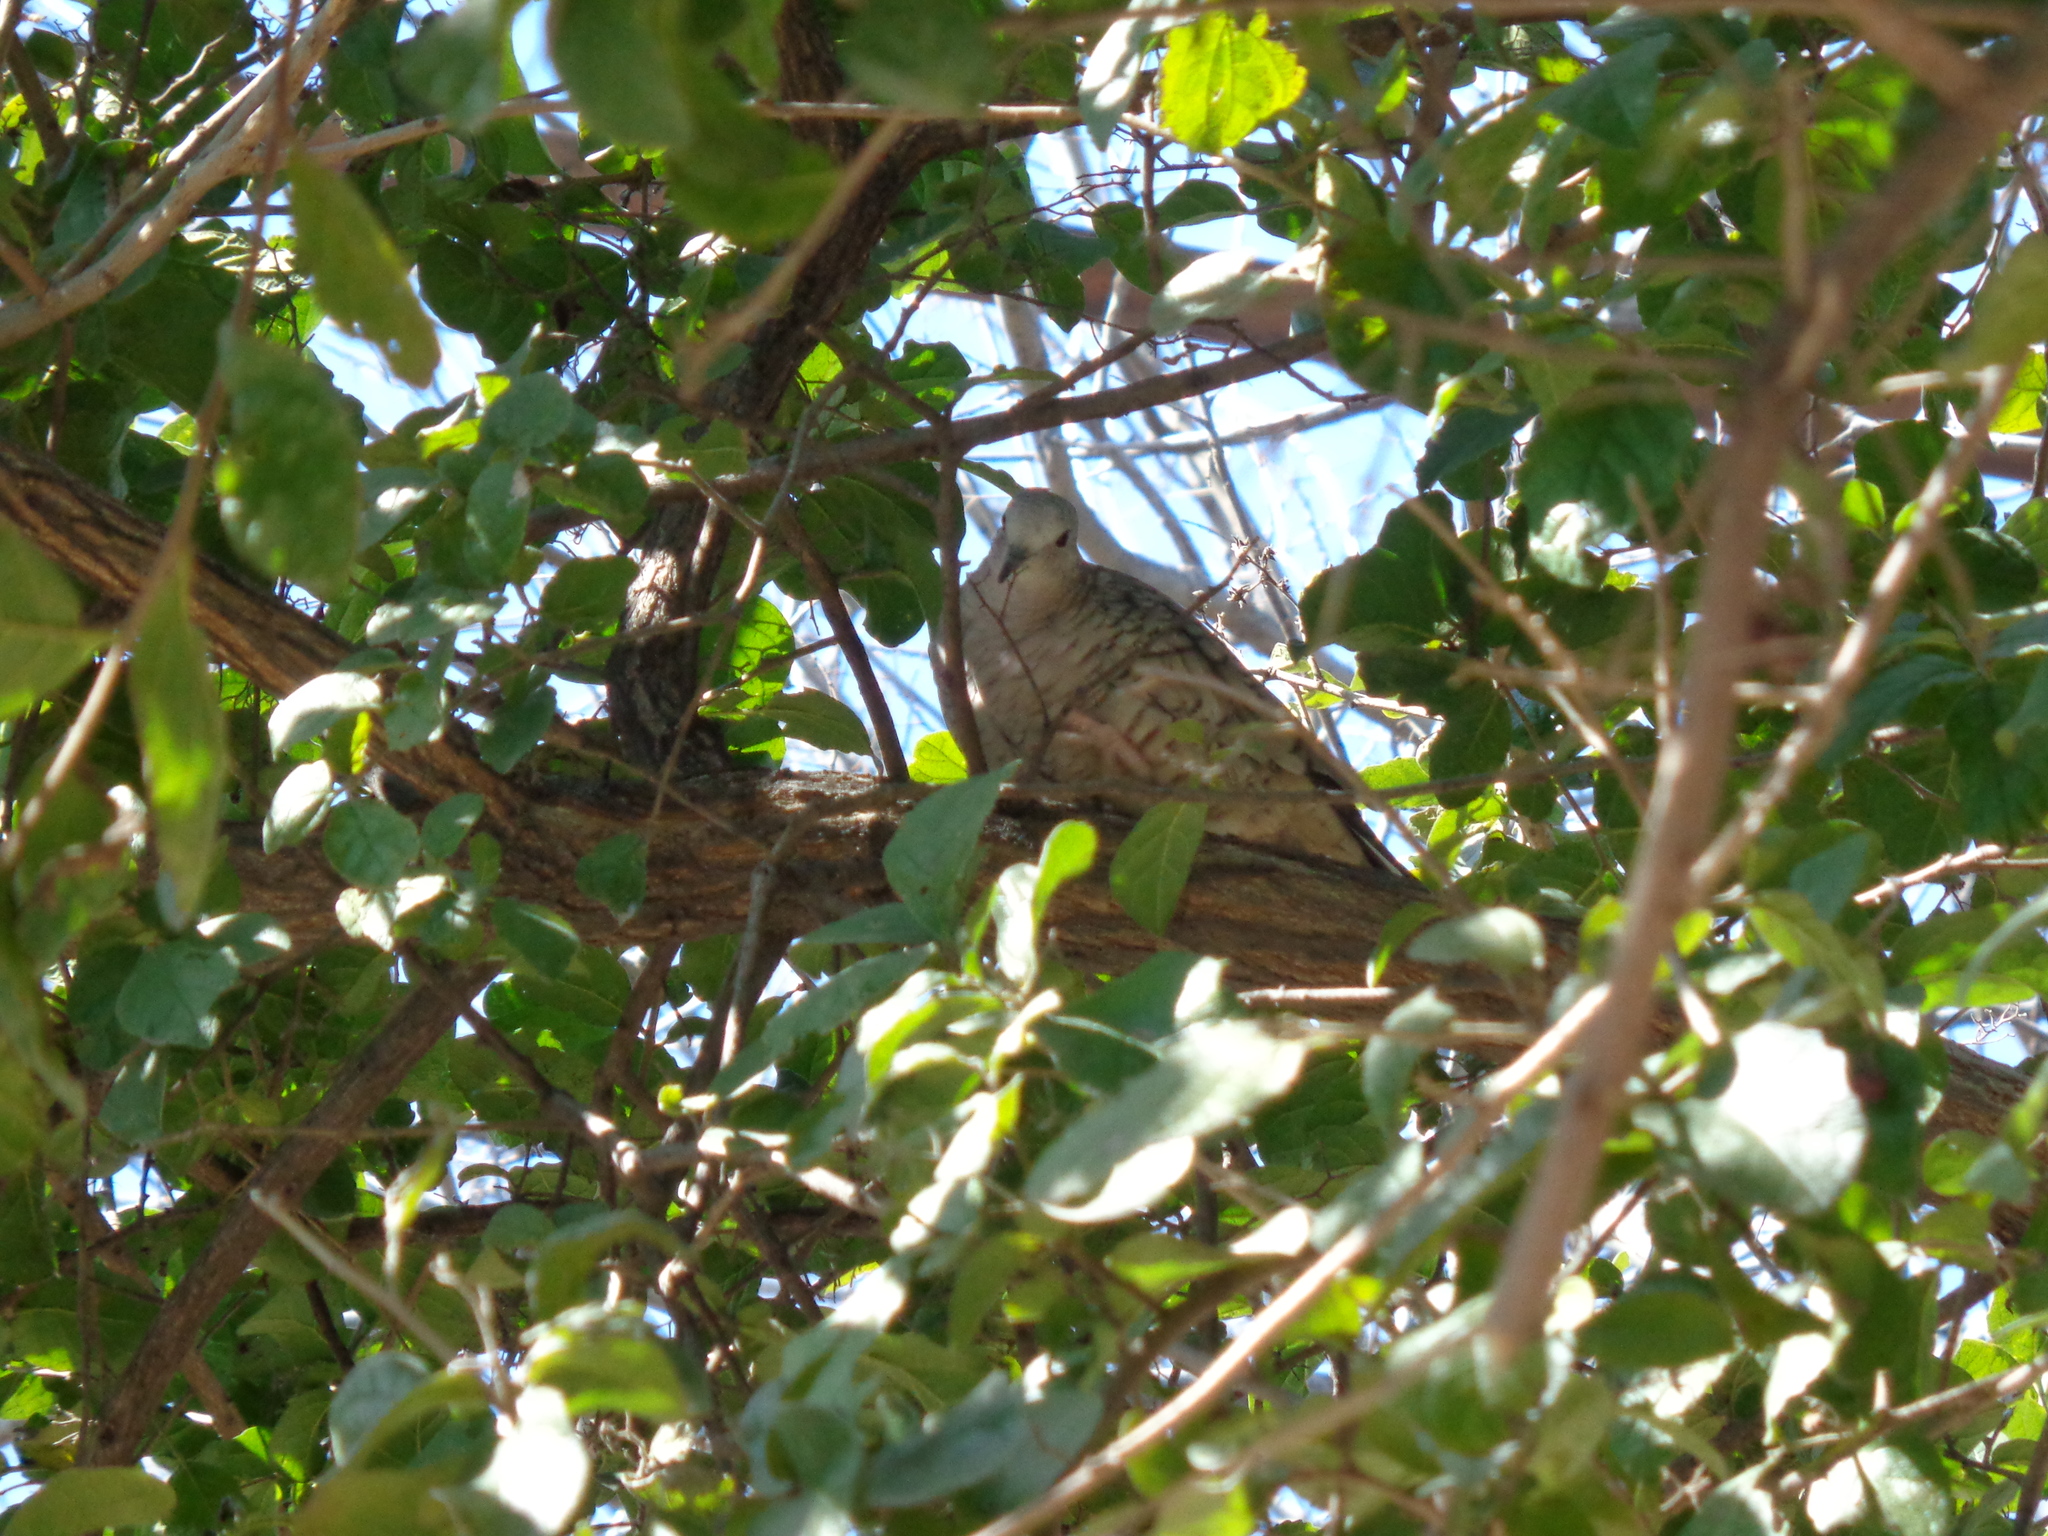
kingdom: Animalia
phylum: Chordata
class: Aves
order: Columbiformes
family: Columbidae
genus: Columbina
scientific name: Columbina inca
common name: Inca dove
